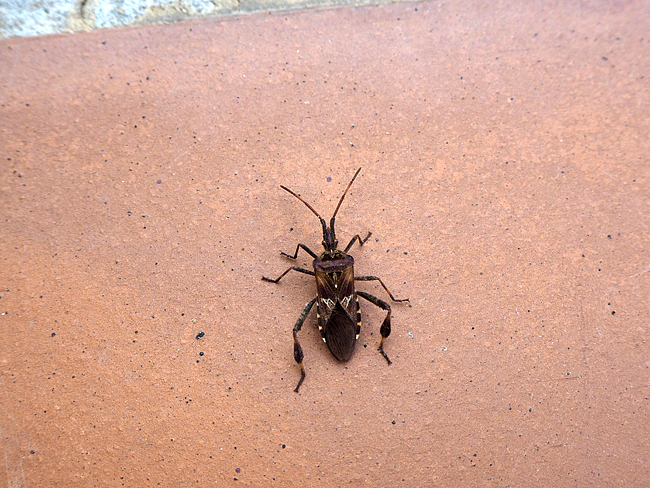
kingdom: Animalia
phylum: Arthropoda
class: Insecta
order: Hemiptera
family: Coreidae
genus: Leptoglossus
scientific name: Leptoglossus occidentalis
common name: Western conifer-seed bug
